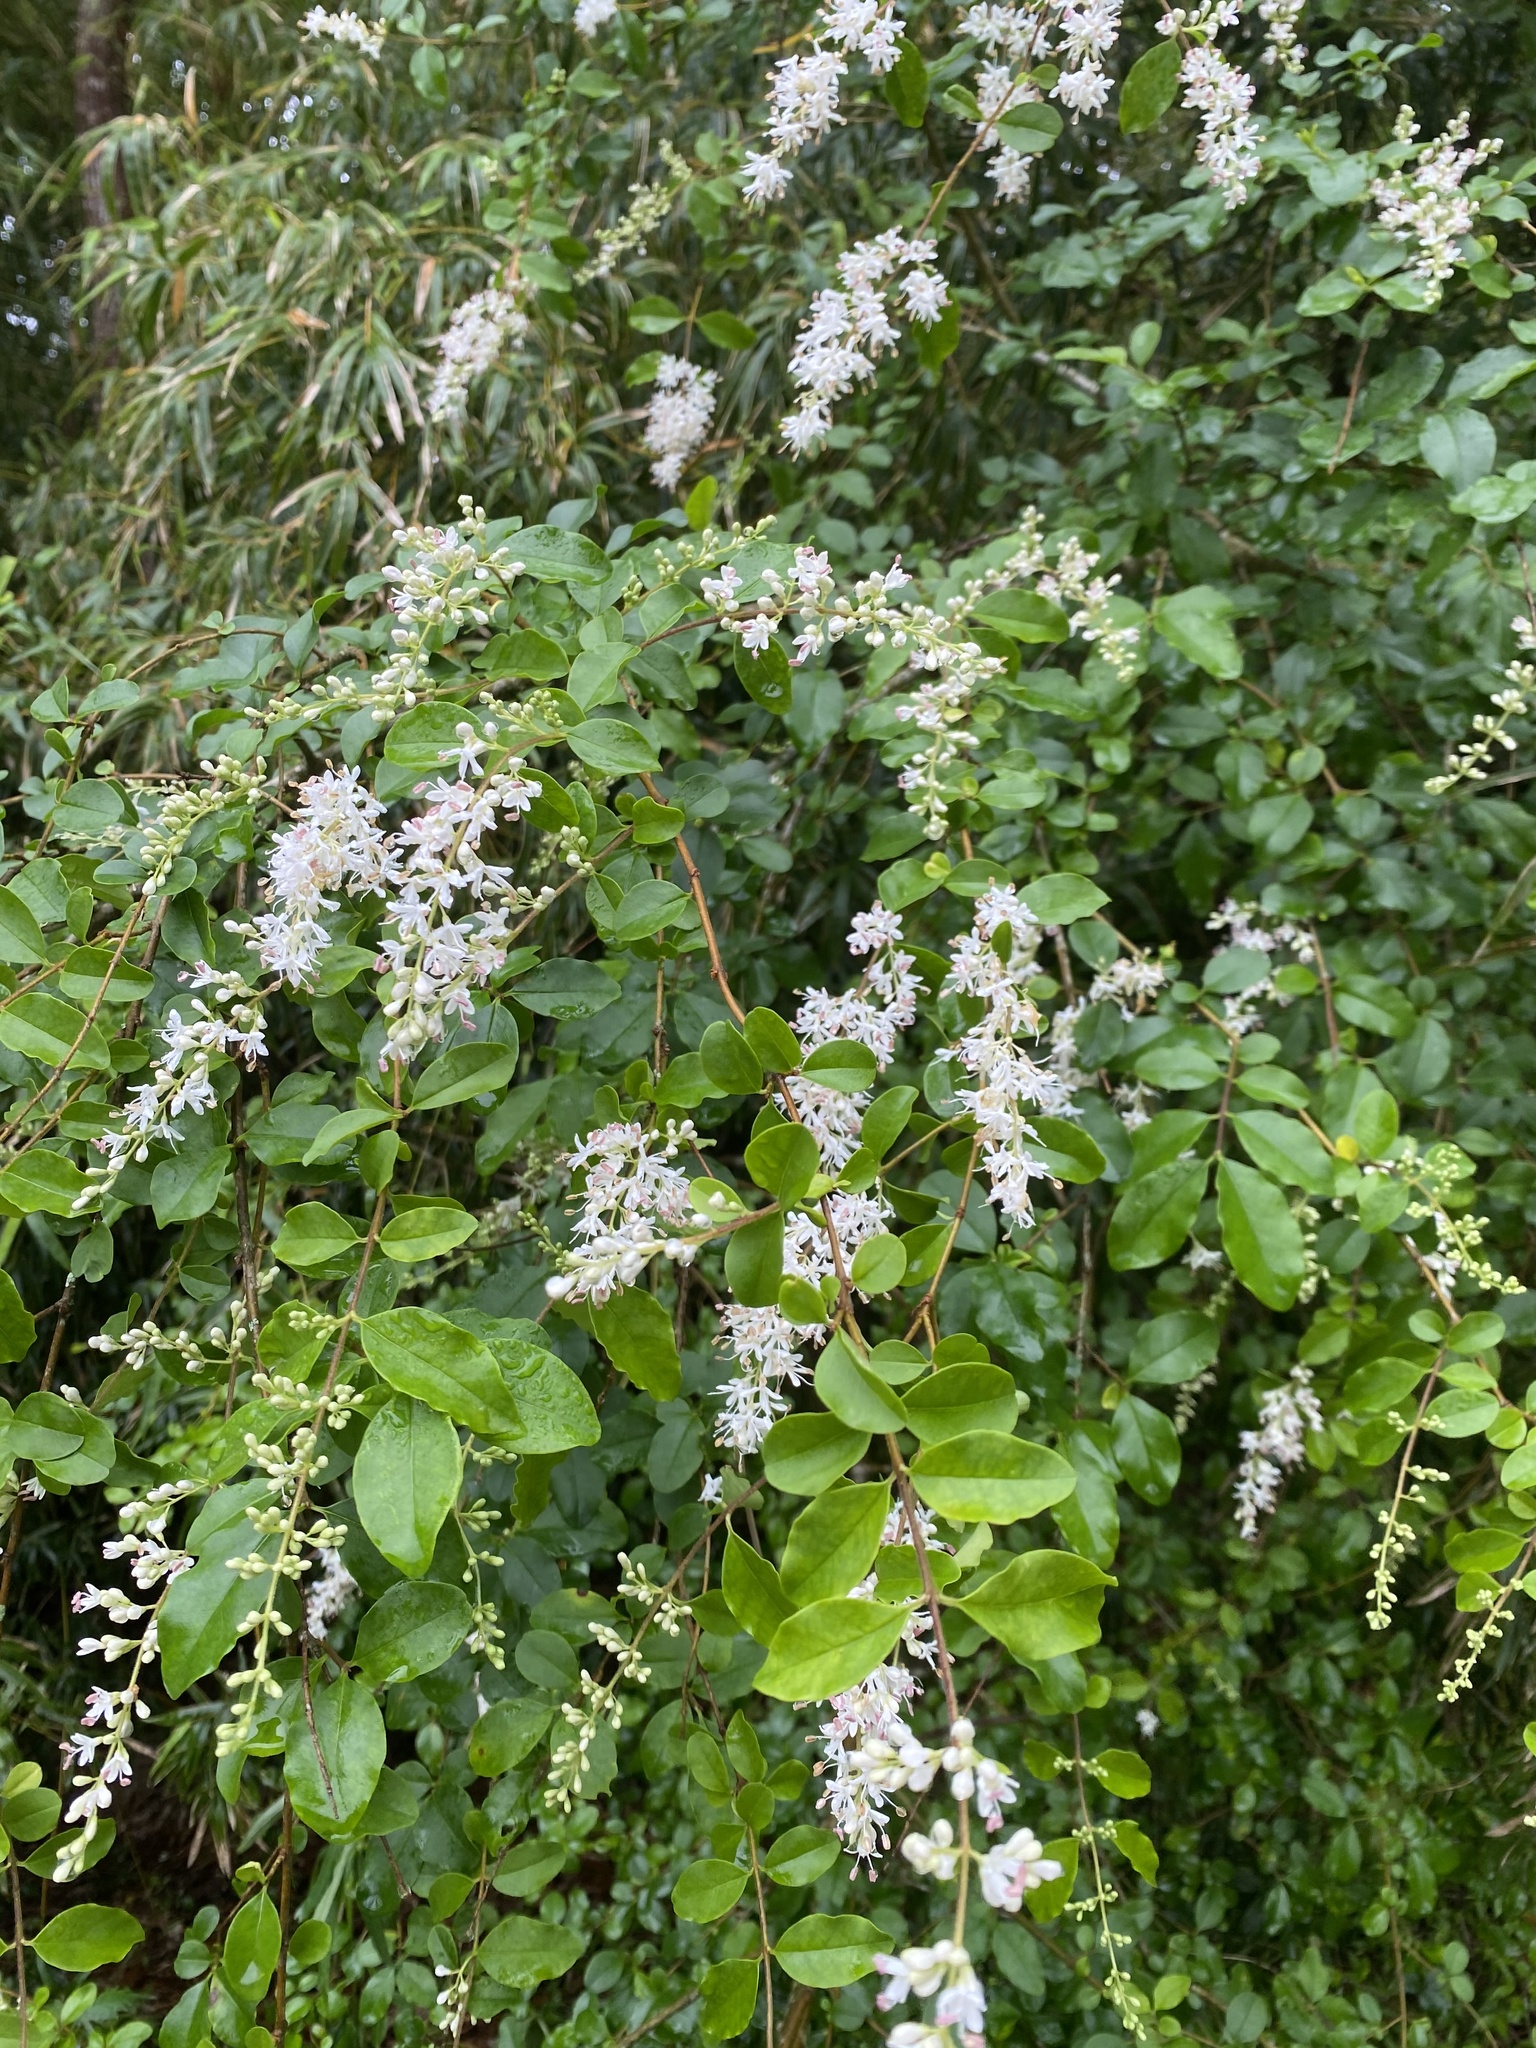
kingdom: Plantae
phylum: Tracheophyta
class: Magnoliopsida
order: Lamiales
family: Oleaceae
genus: Ligustrum
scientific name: Ligustrum sinense
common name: Chinese privet
